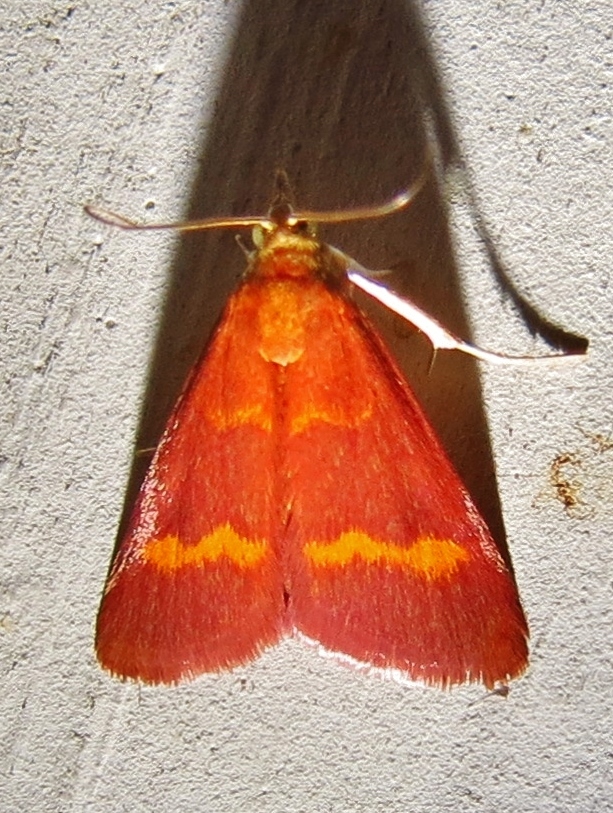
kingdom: Animalia
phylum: Arthropoda
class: Insecta
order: Lepidoptera
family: Crambidae
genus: Pyrausta
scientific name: Pyrausta pseuderosnealis
